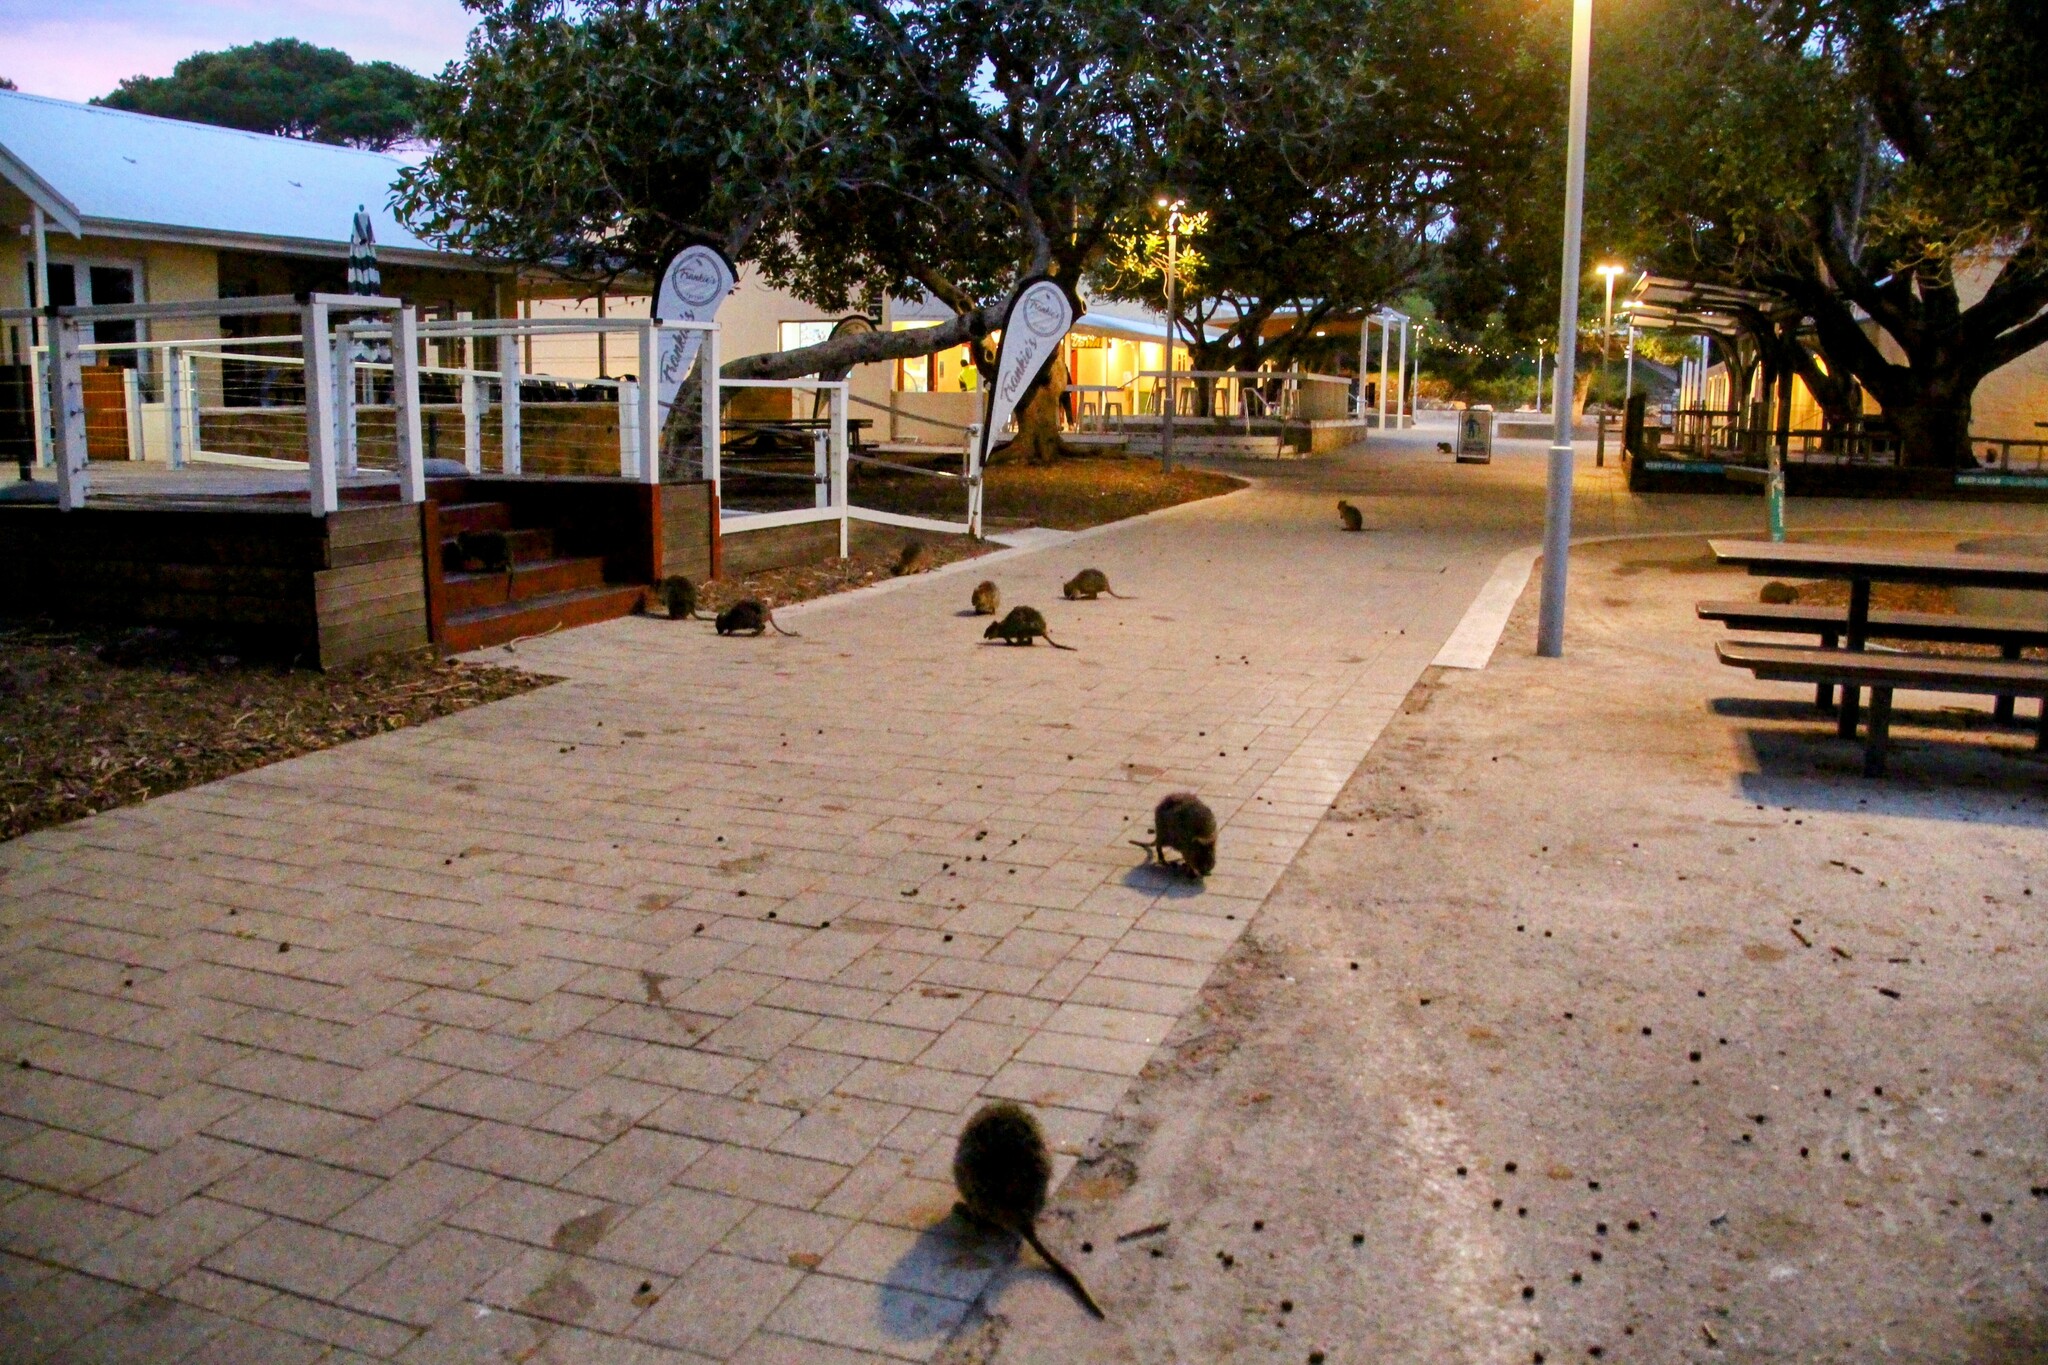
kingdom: Animalia
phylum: Chordata
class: Mammalia
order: Diprotodontia
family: Macropodidae
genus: Setonix
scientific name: Setonix brachyurus
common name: Quokka
